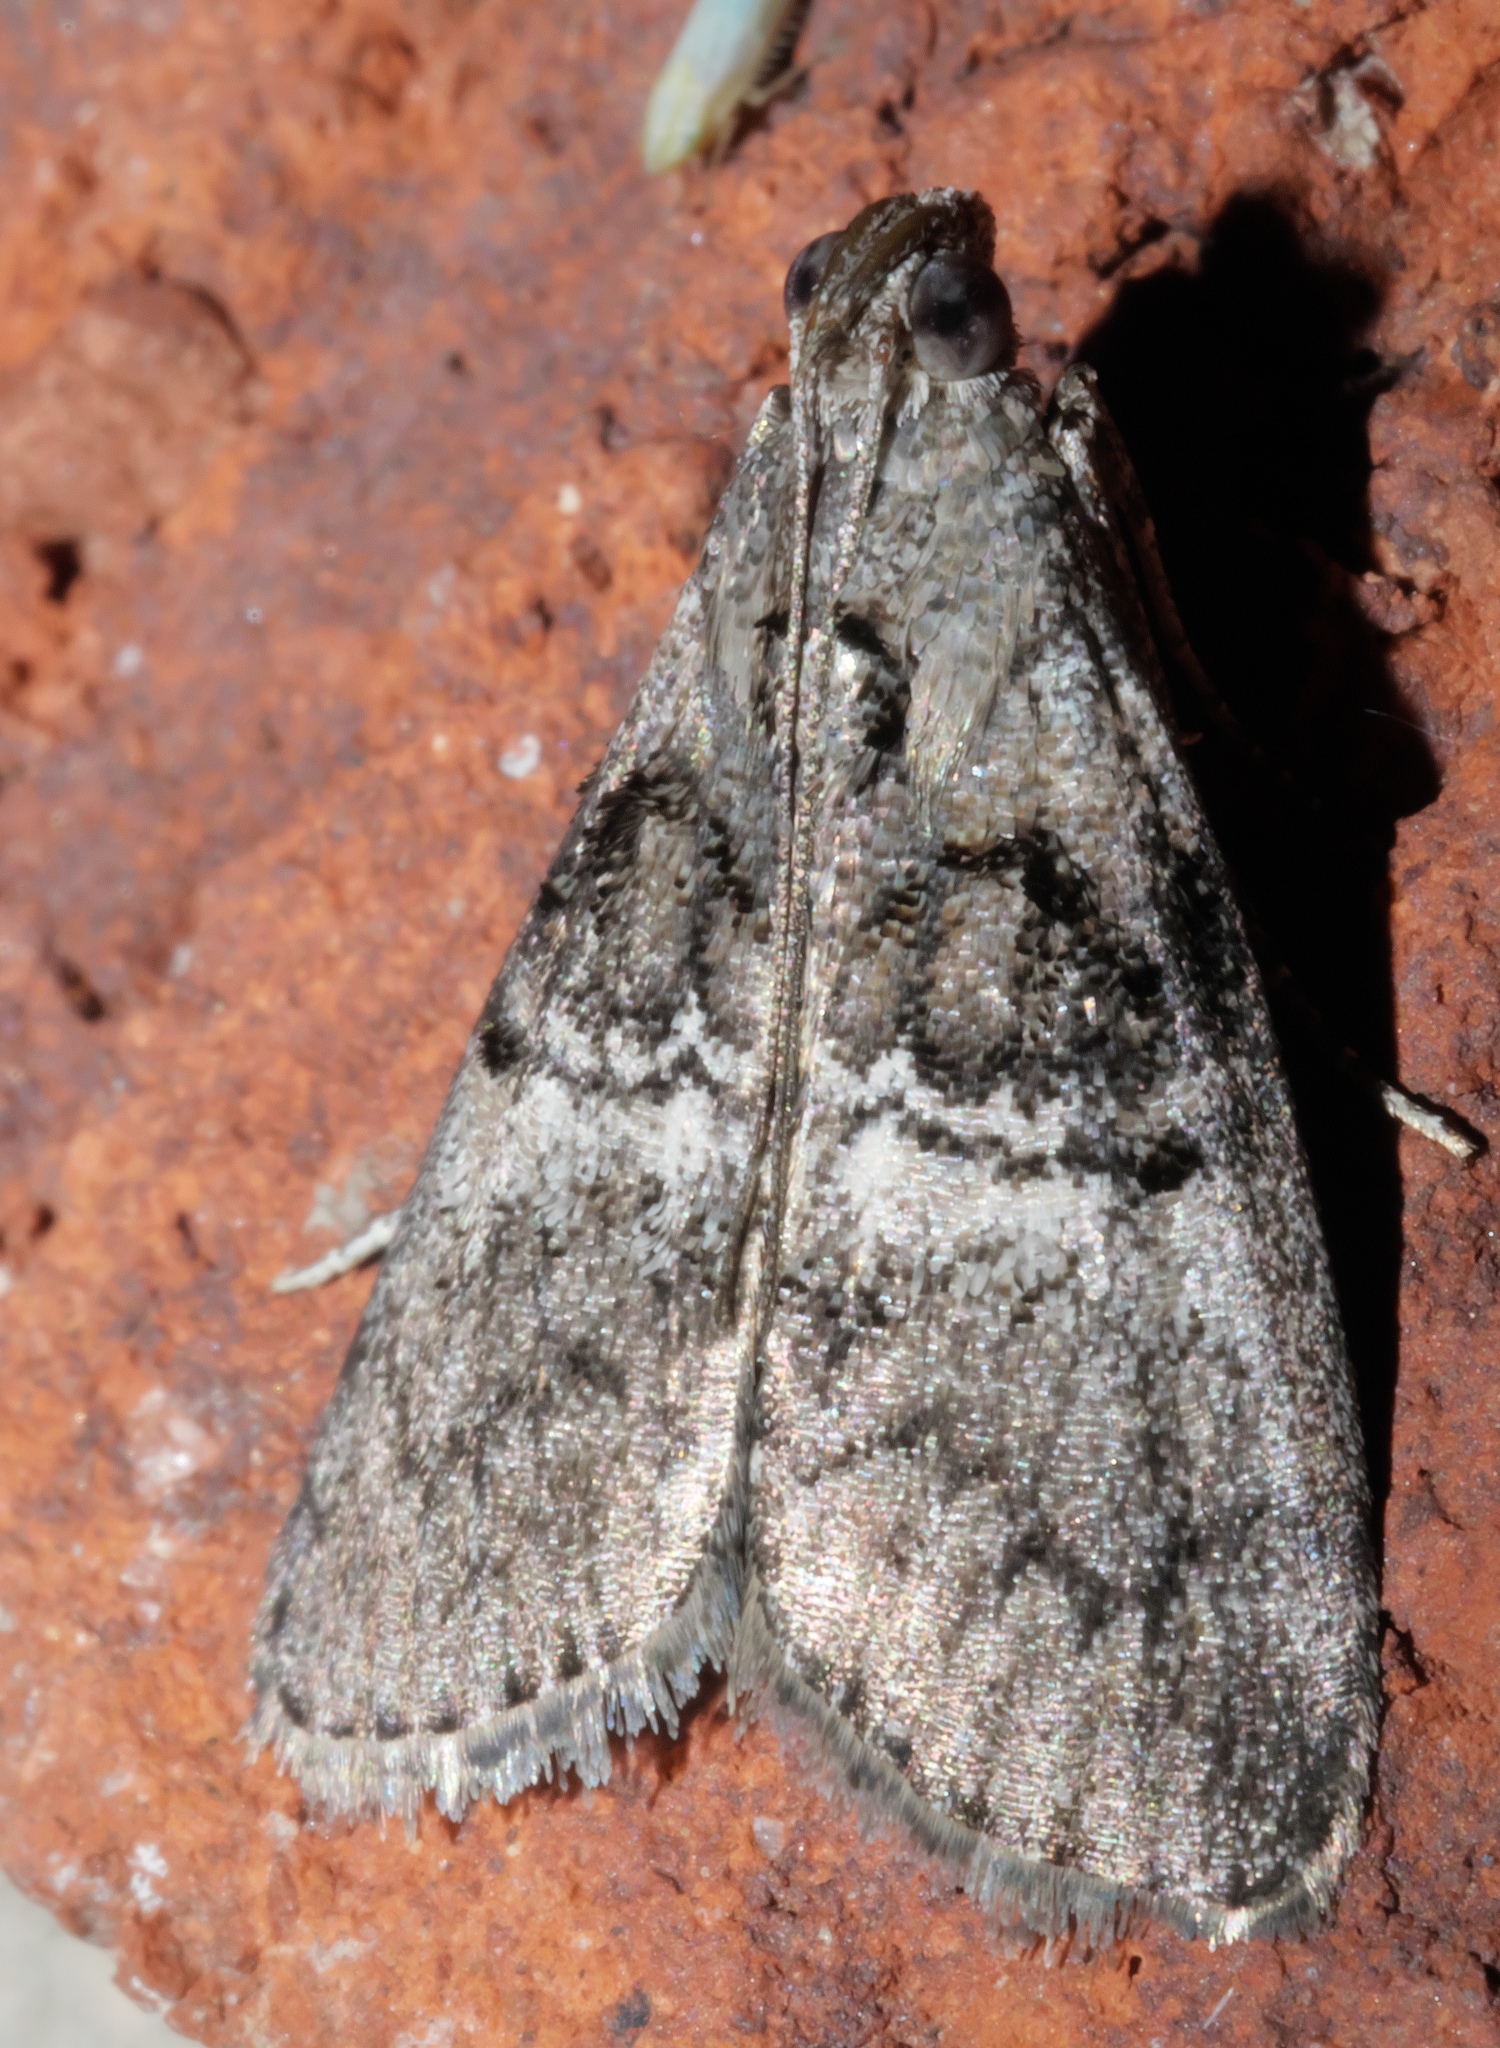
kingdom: Animalia
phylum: Arthropoda
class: Insecta
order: Lepidoptera
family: Pyralidae
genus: Pococera
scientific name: Pococera asperatella
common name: Maple webworm moth
